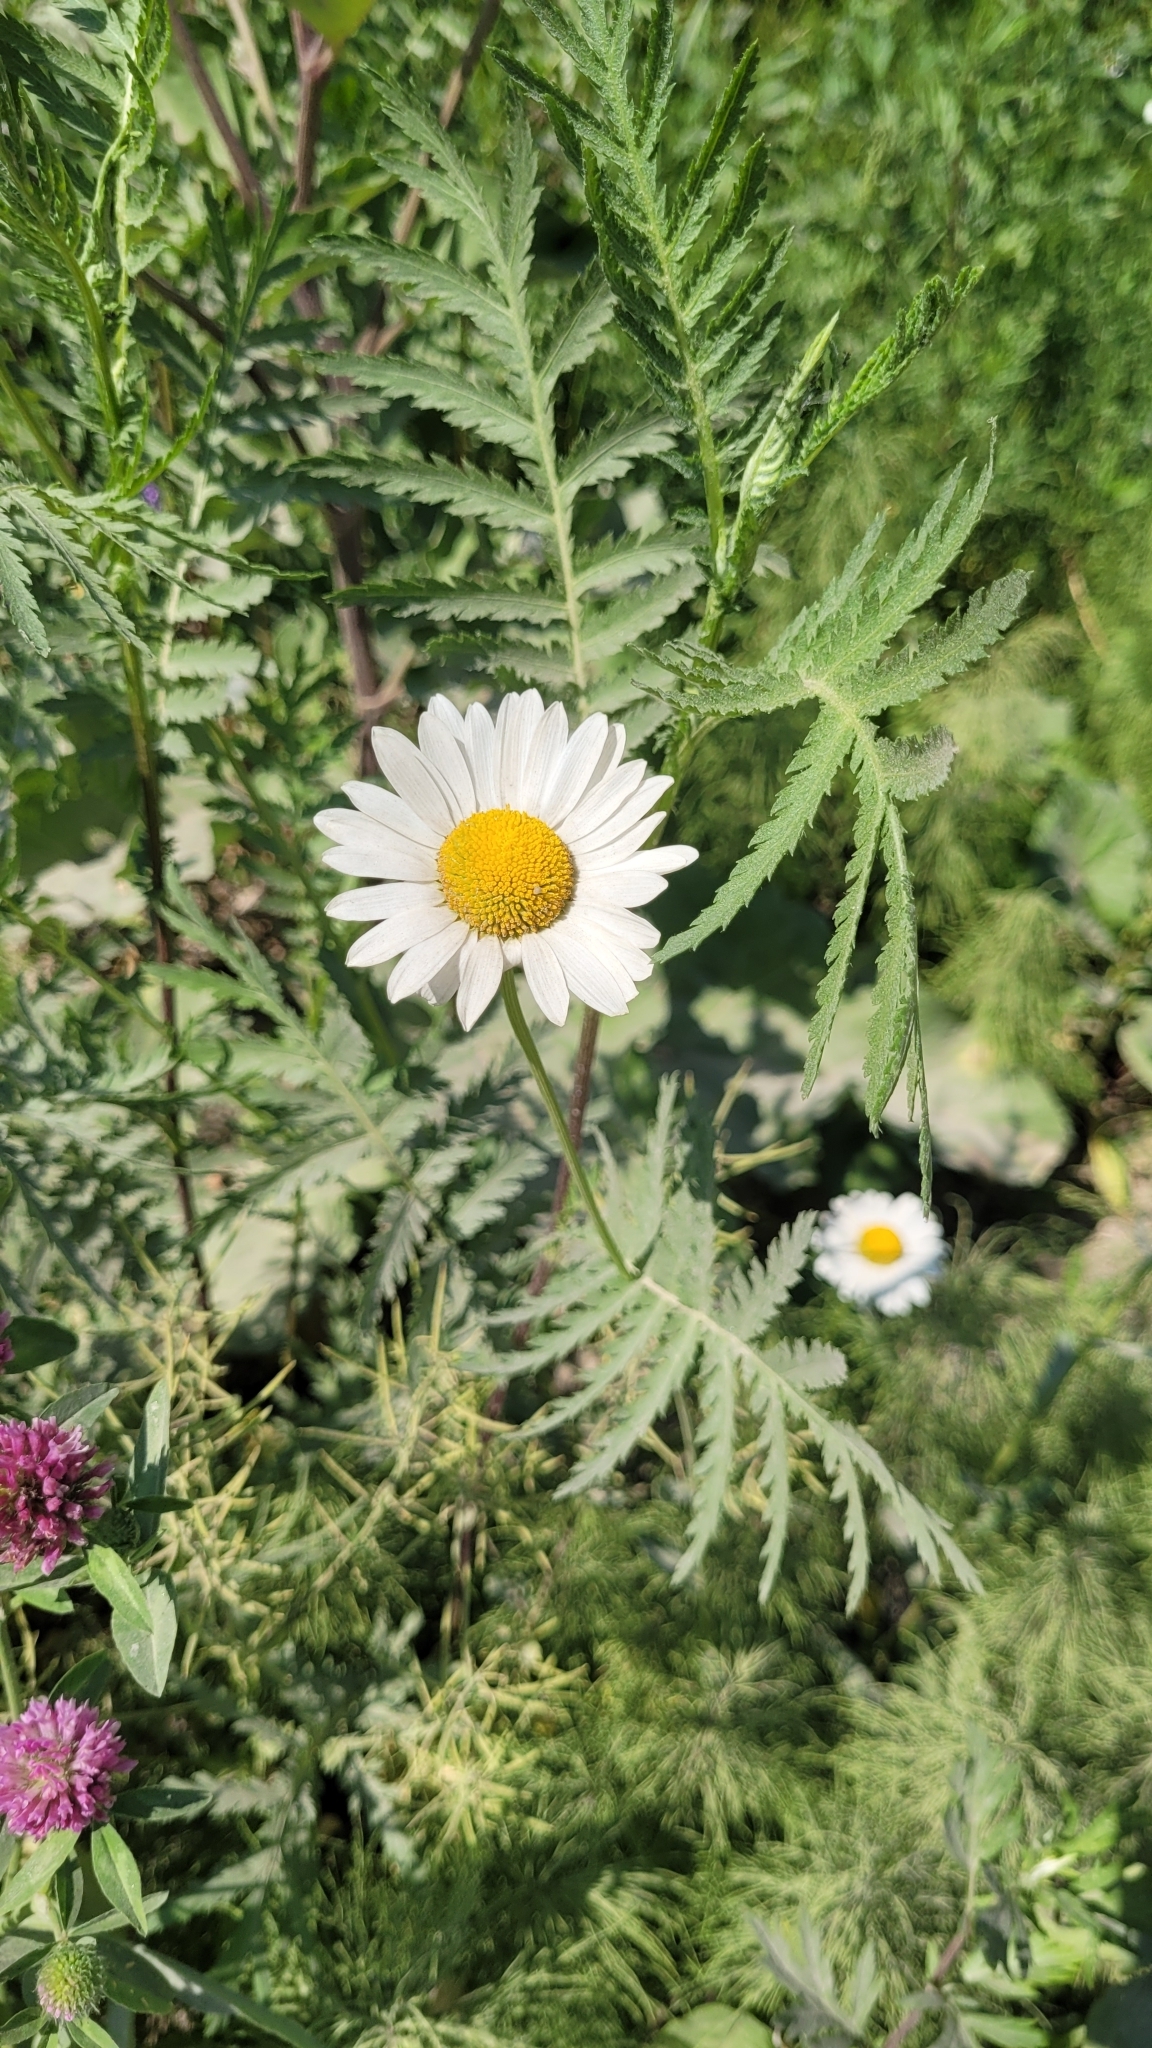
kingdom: Plantae
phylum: Tracheophyta
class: Magnoliopsida
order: Asterales
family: Asteraceae
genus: Leucanthemum
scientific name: Leucanthemum vulgare
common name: Oxeye daisy
